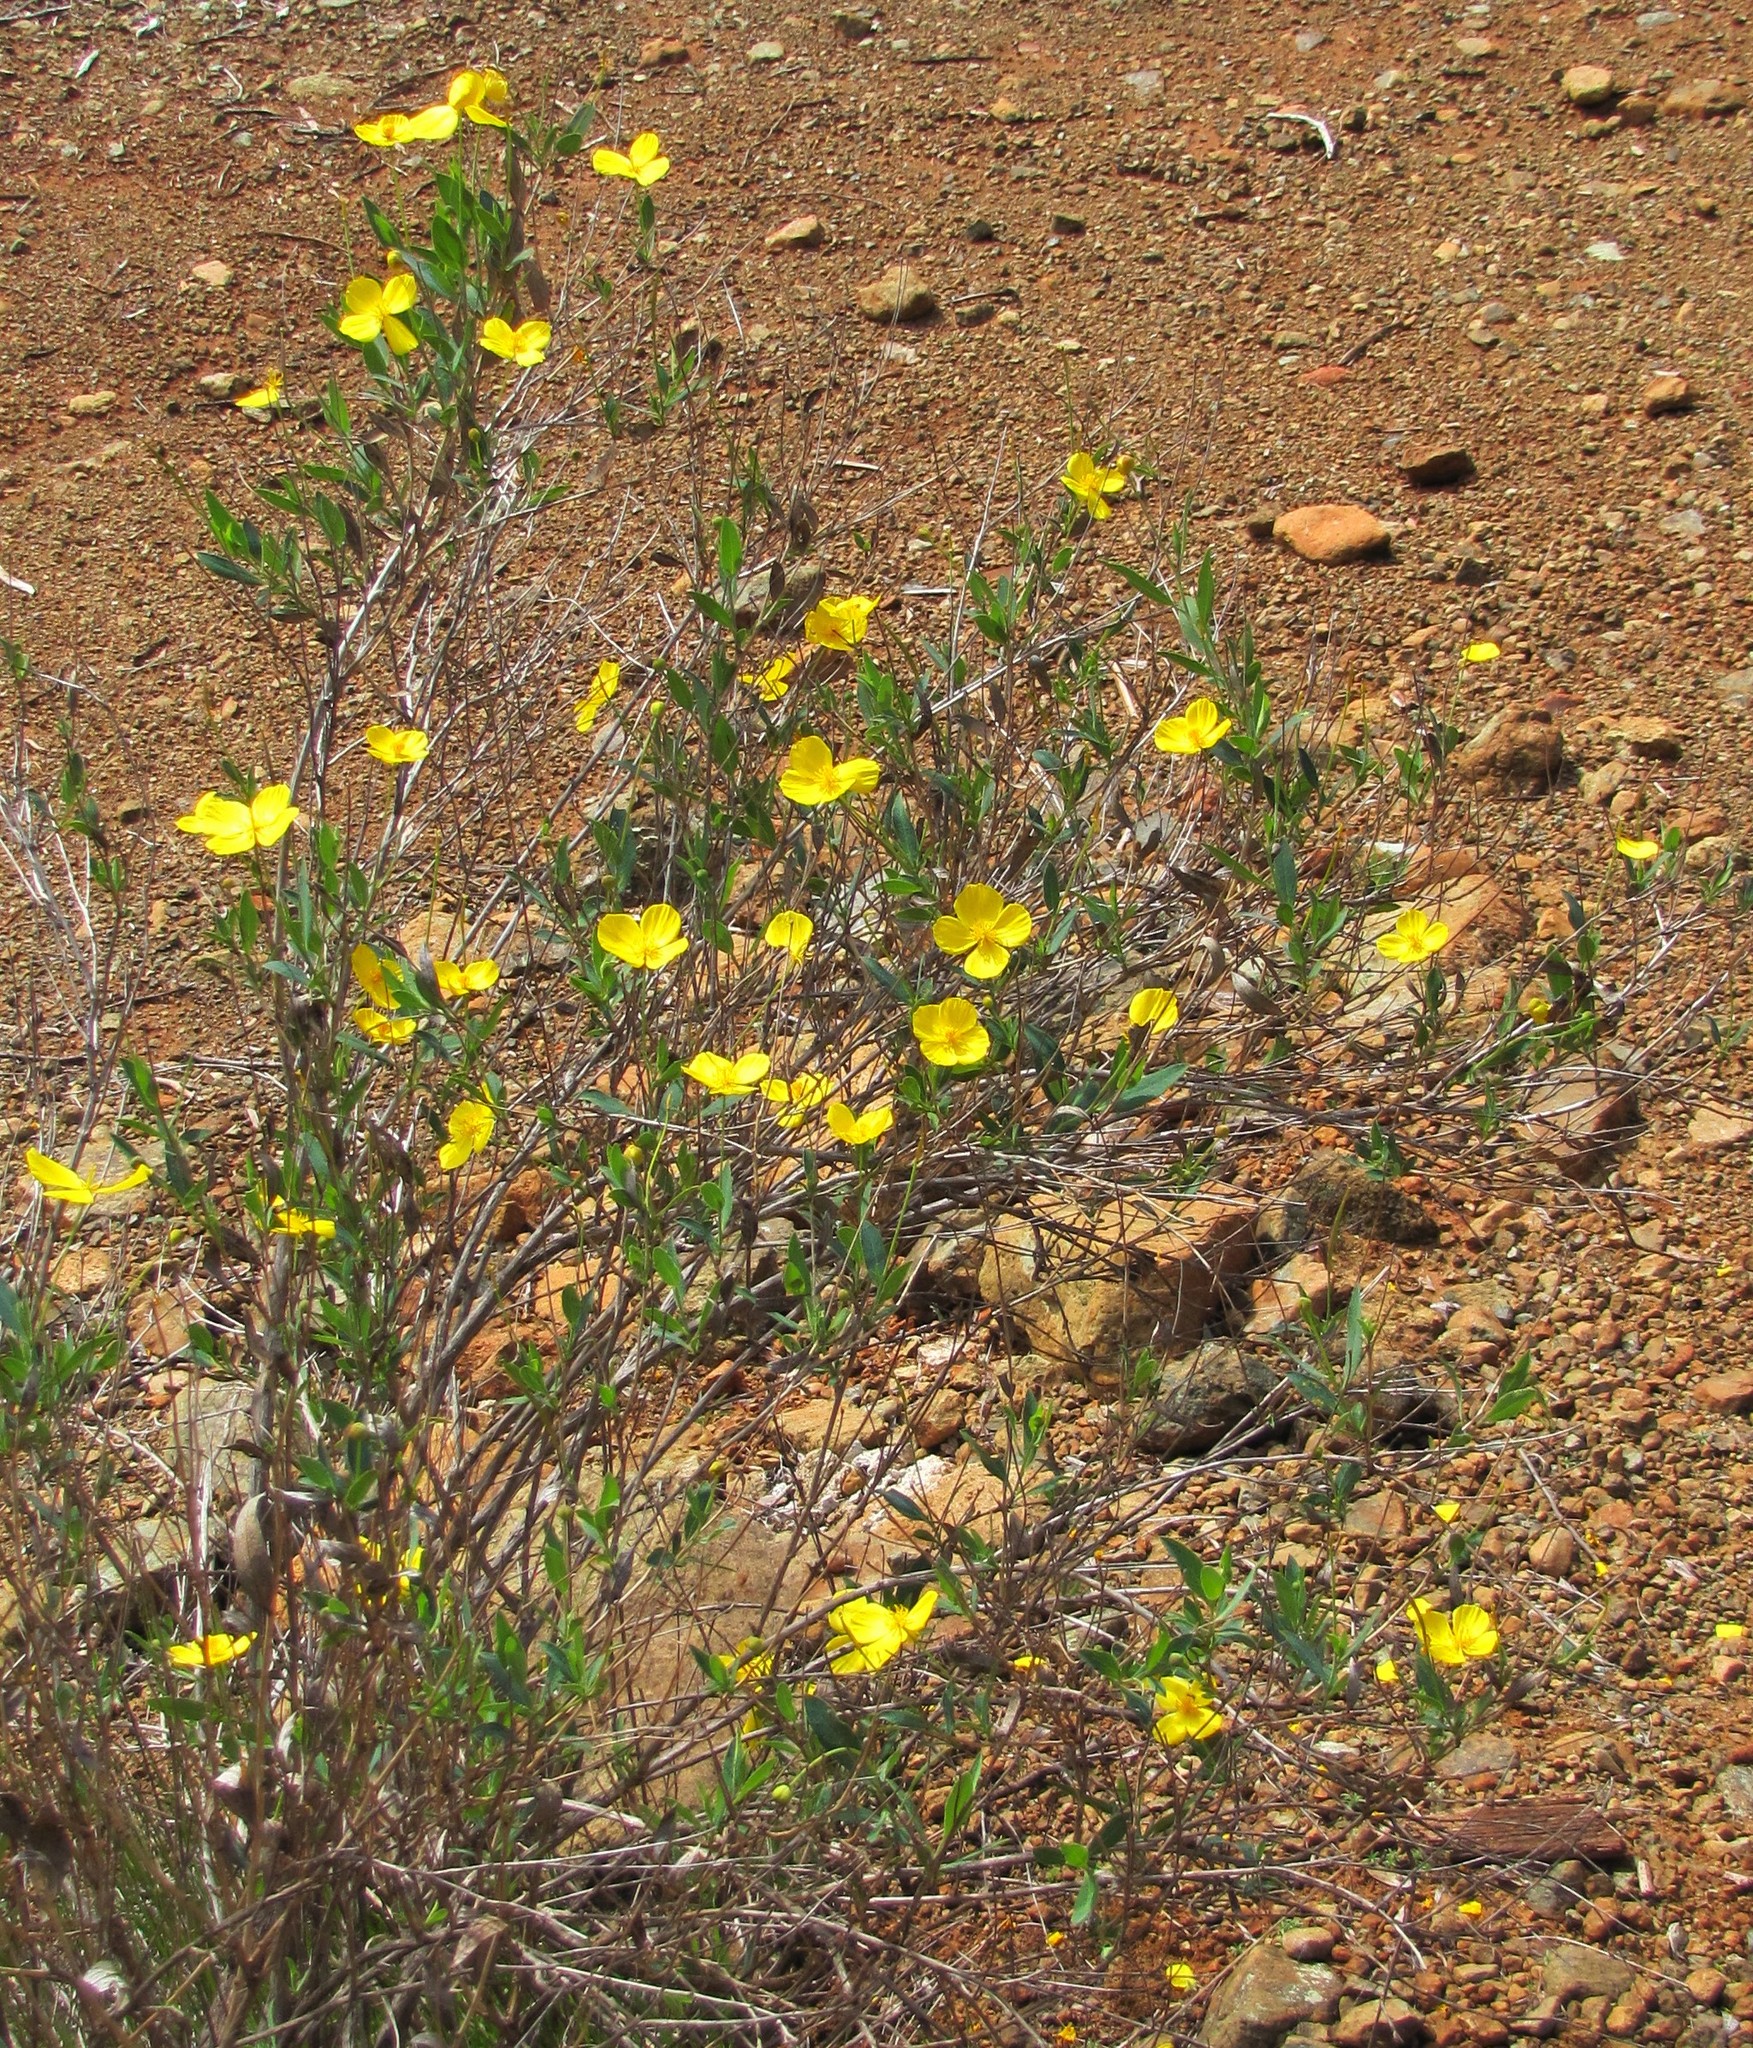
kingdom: Plantae
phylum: Tracheophyta
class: Magnoliopsida
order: Ranunculales
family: Papaveraceae
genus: Dendromecon
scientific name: Dendromecon rigida
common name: Tree poppy
